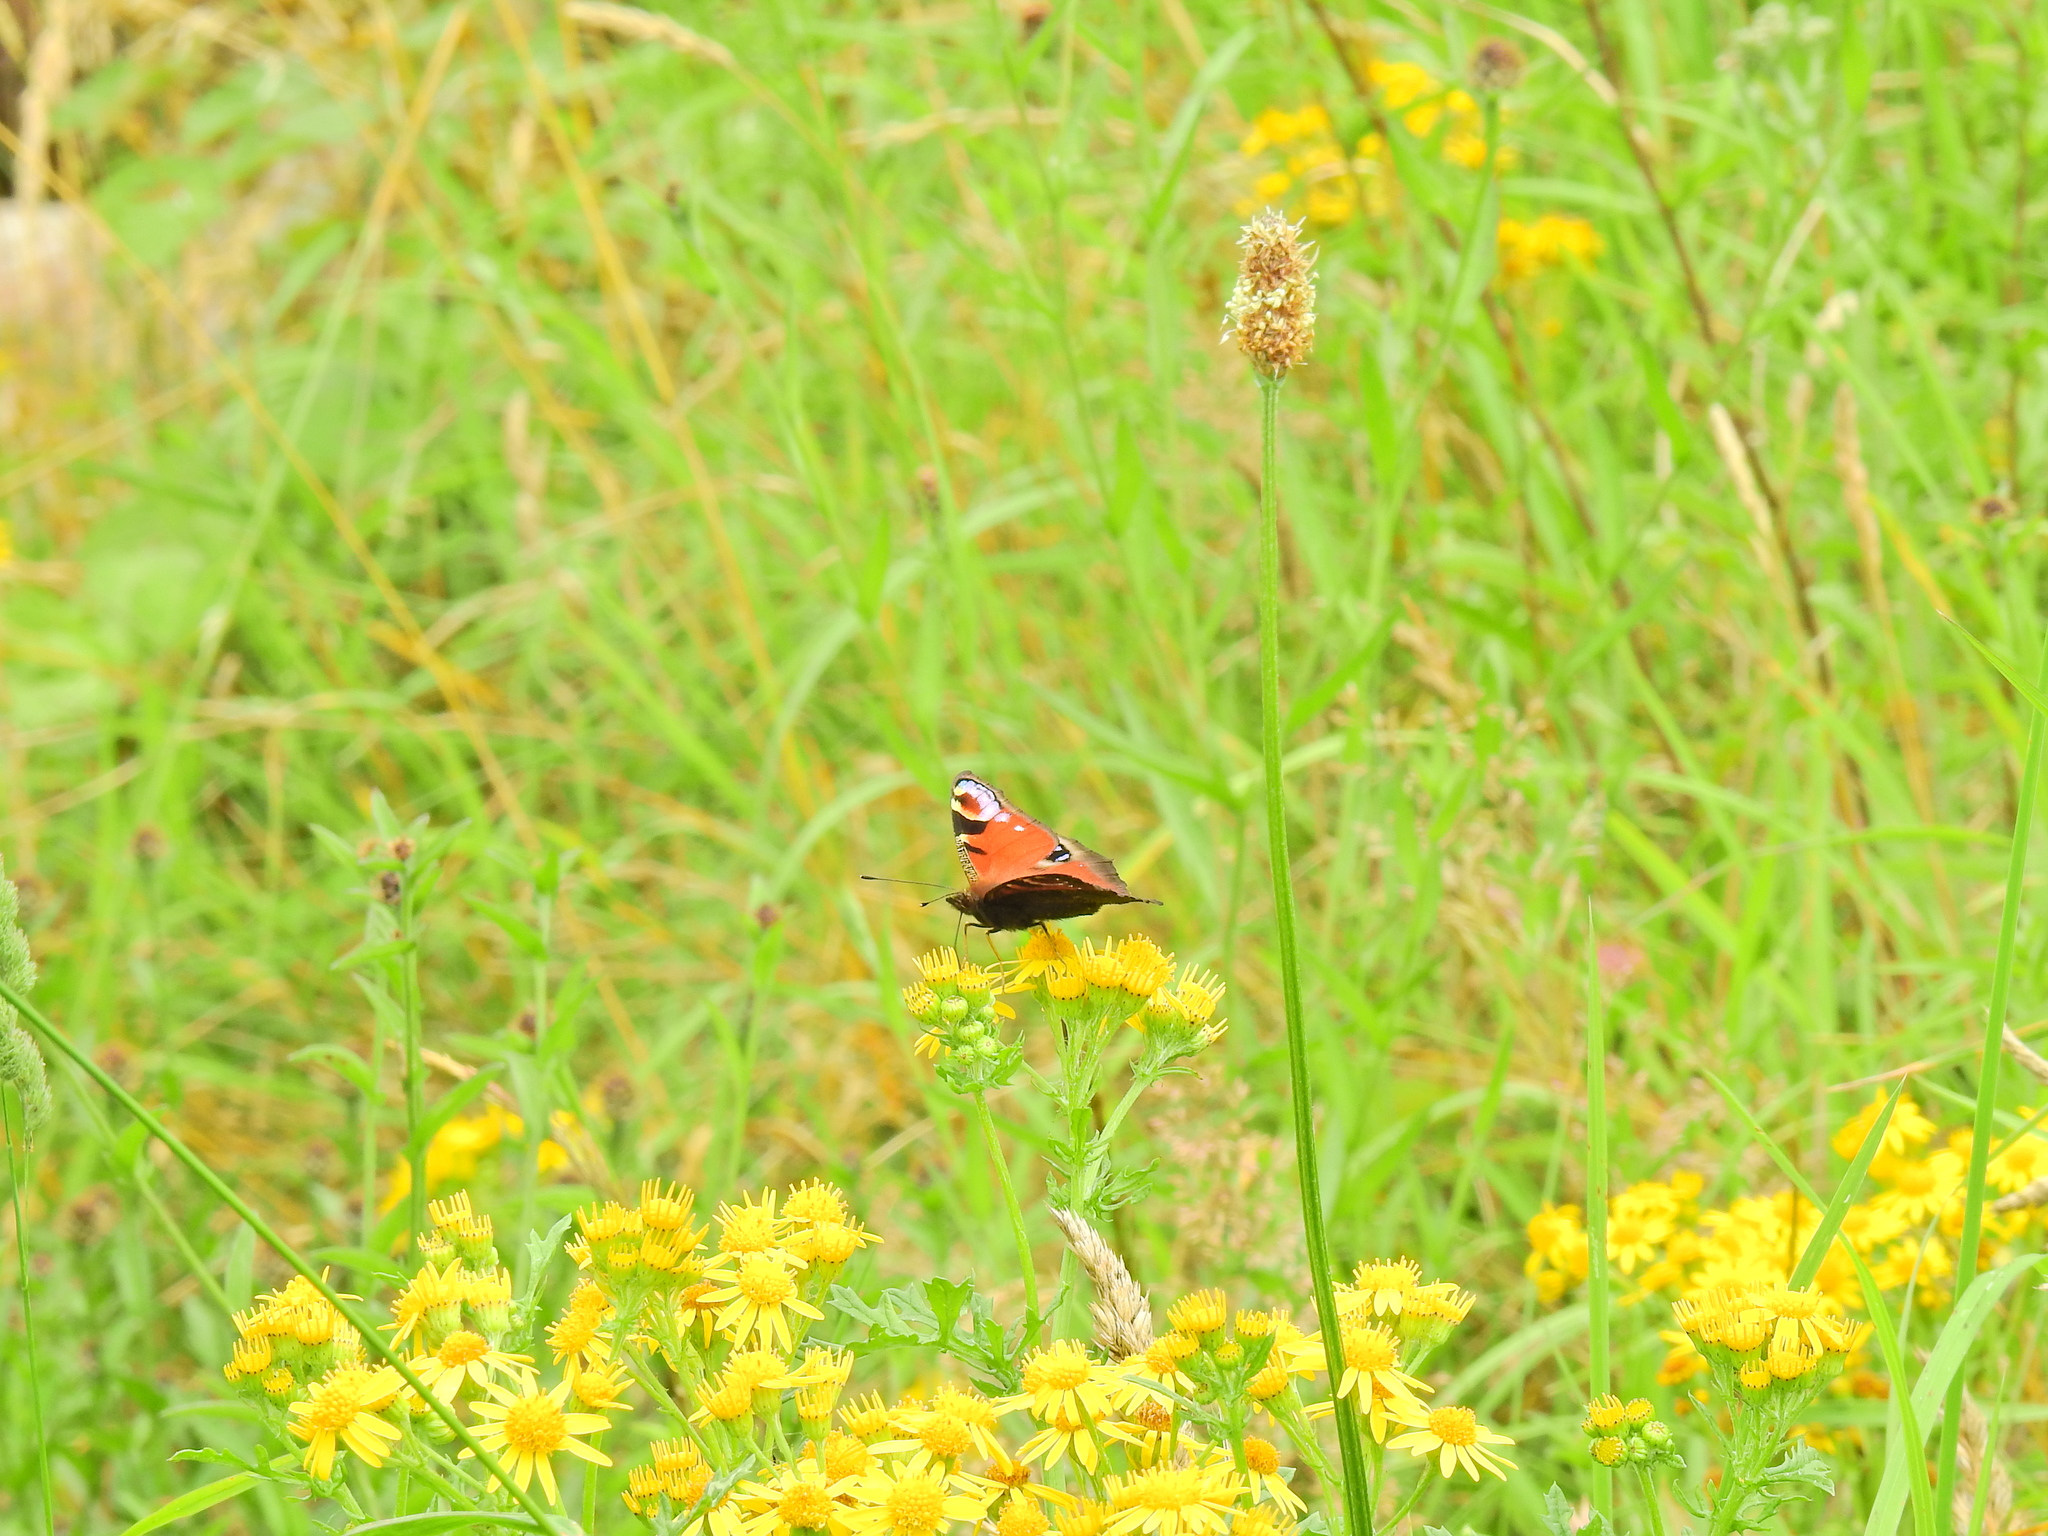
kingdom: Animalia
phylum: Arthropoda
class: Insecta
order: Lepidoptera
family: Nymphalidae
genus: Aglais
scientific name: Aglais io
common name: Peacock
